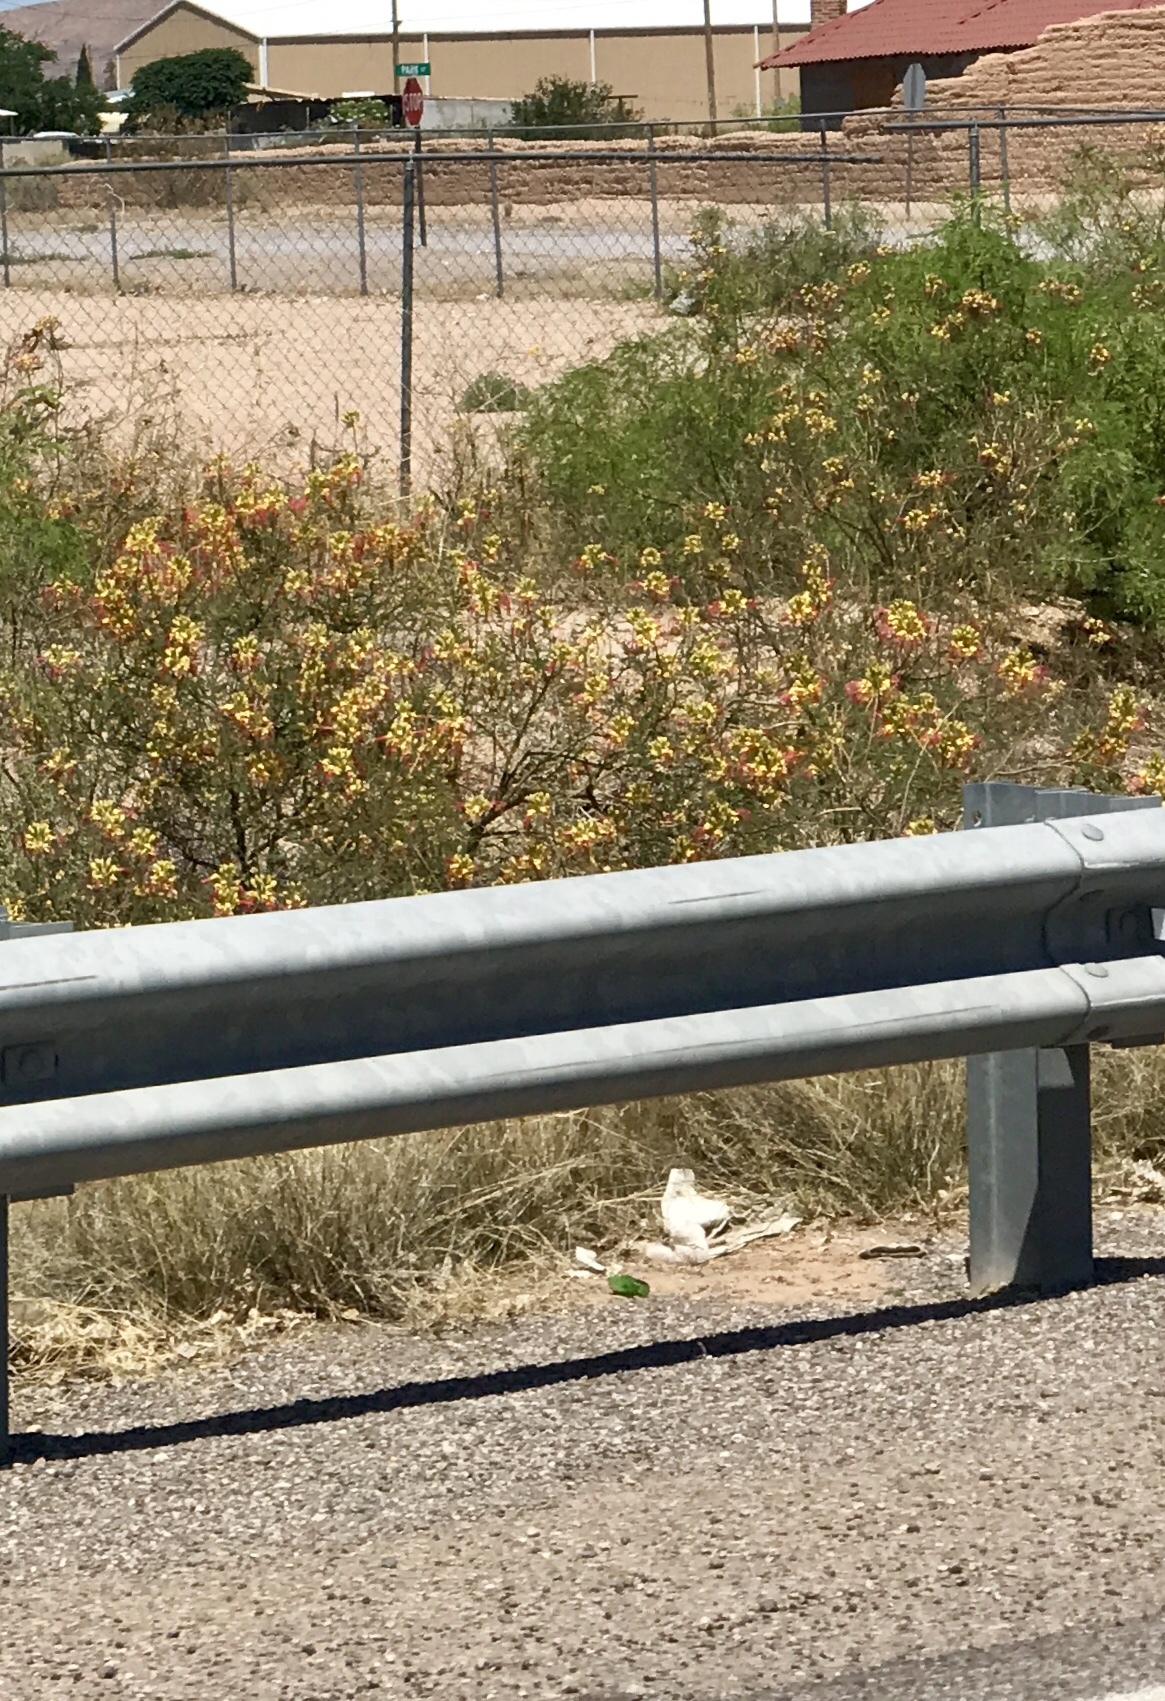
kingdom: Plantae
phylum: Tracheophyta
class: Magnoliopsida
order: Fabales
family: Fabaceae
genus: Erythrostemon
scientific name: Erythrostemon gilliesii
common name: Bird-of-paradise shrub
